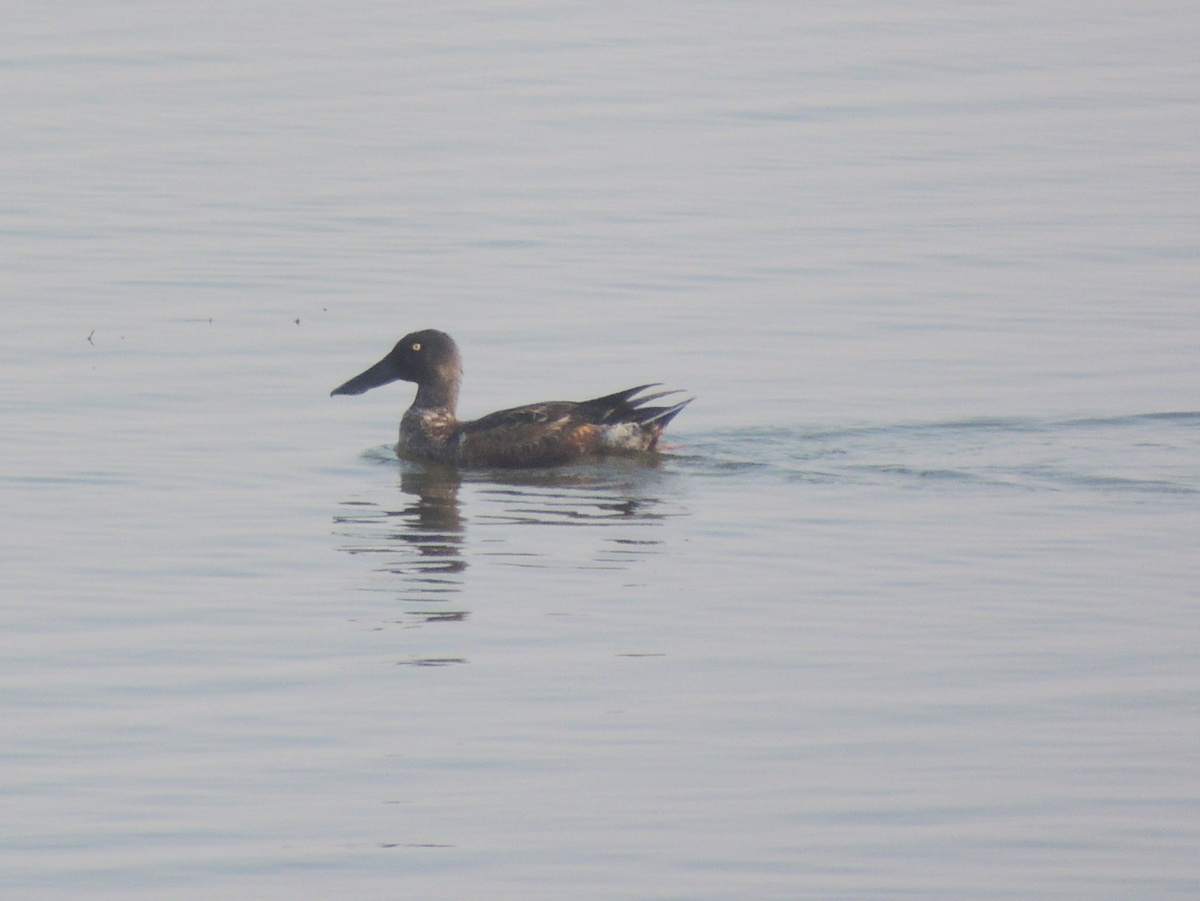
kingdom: Animalia
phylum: Chordata
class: Aves
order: Anseriformes
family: Anatidae
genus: Spatula
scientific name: Spatula clypeata
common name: Northern shoveler
